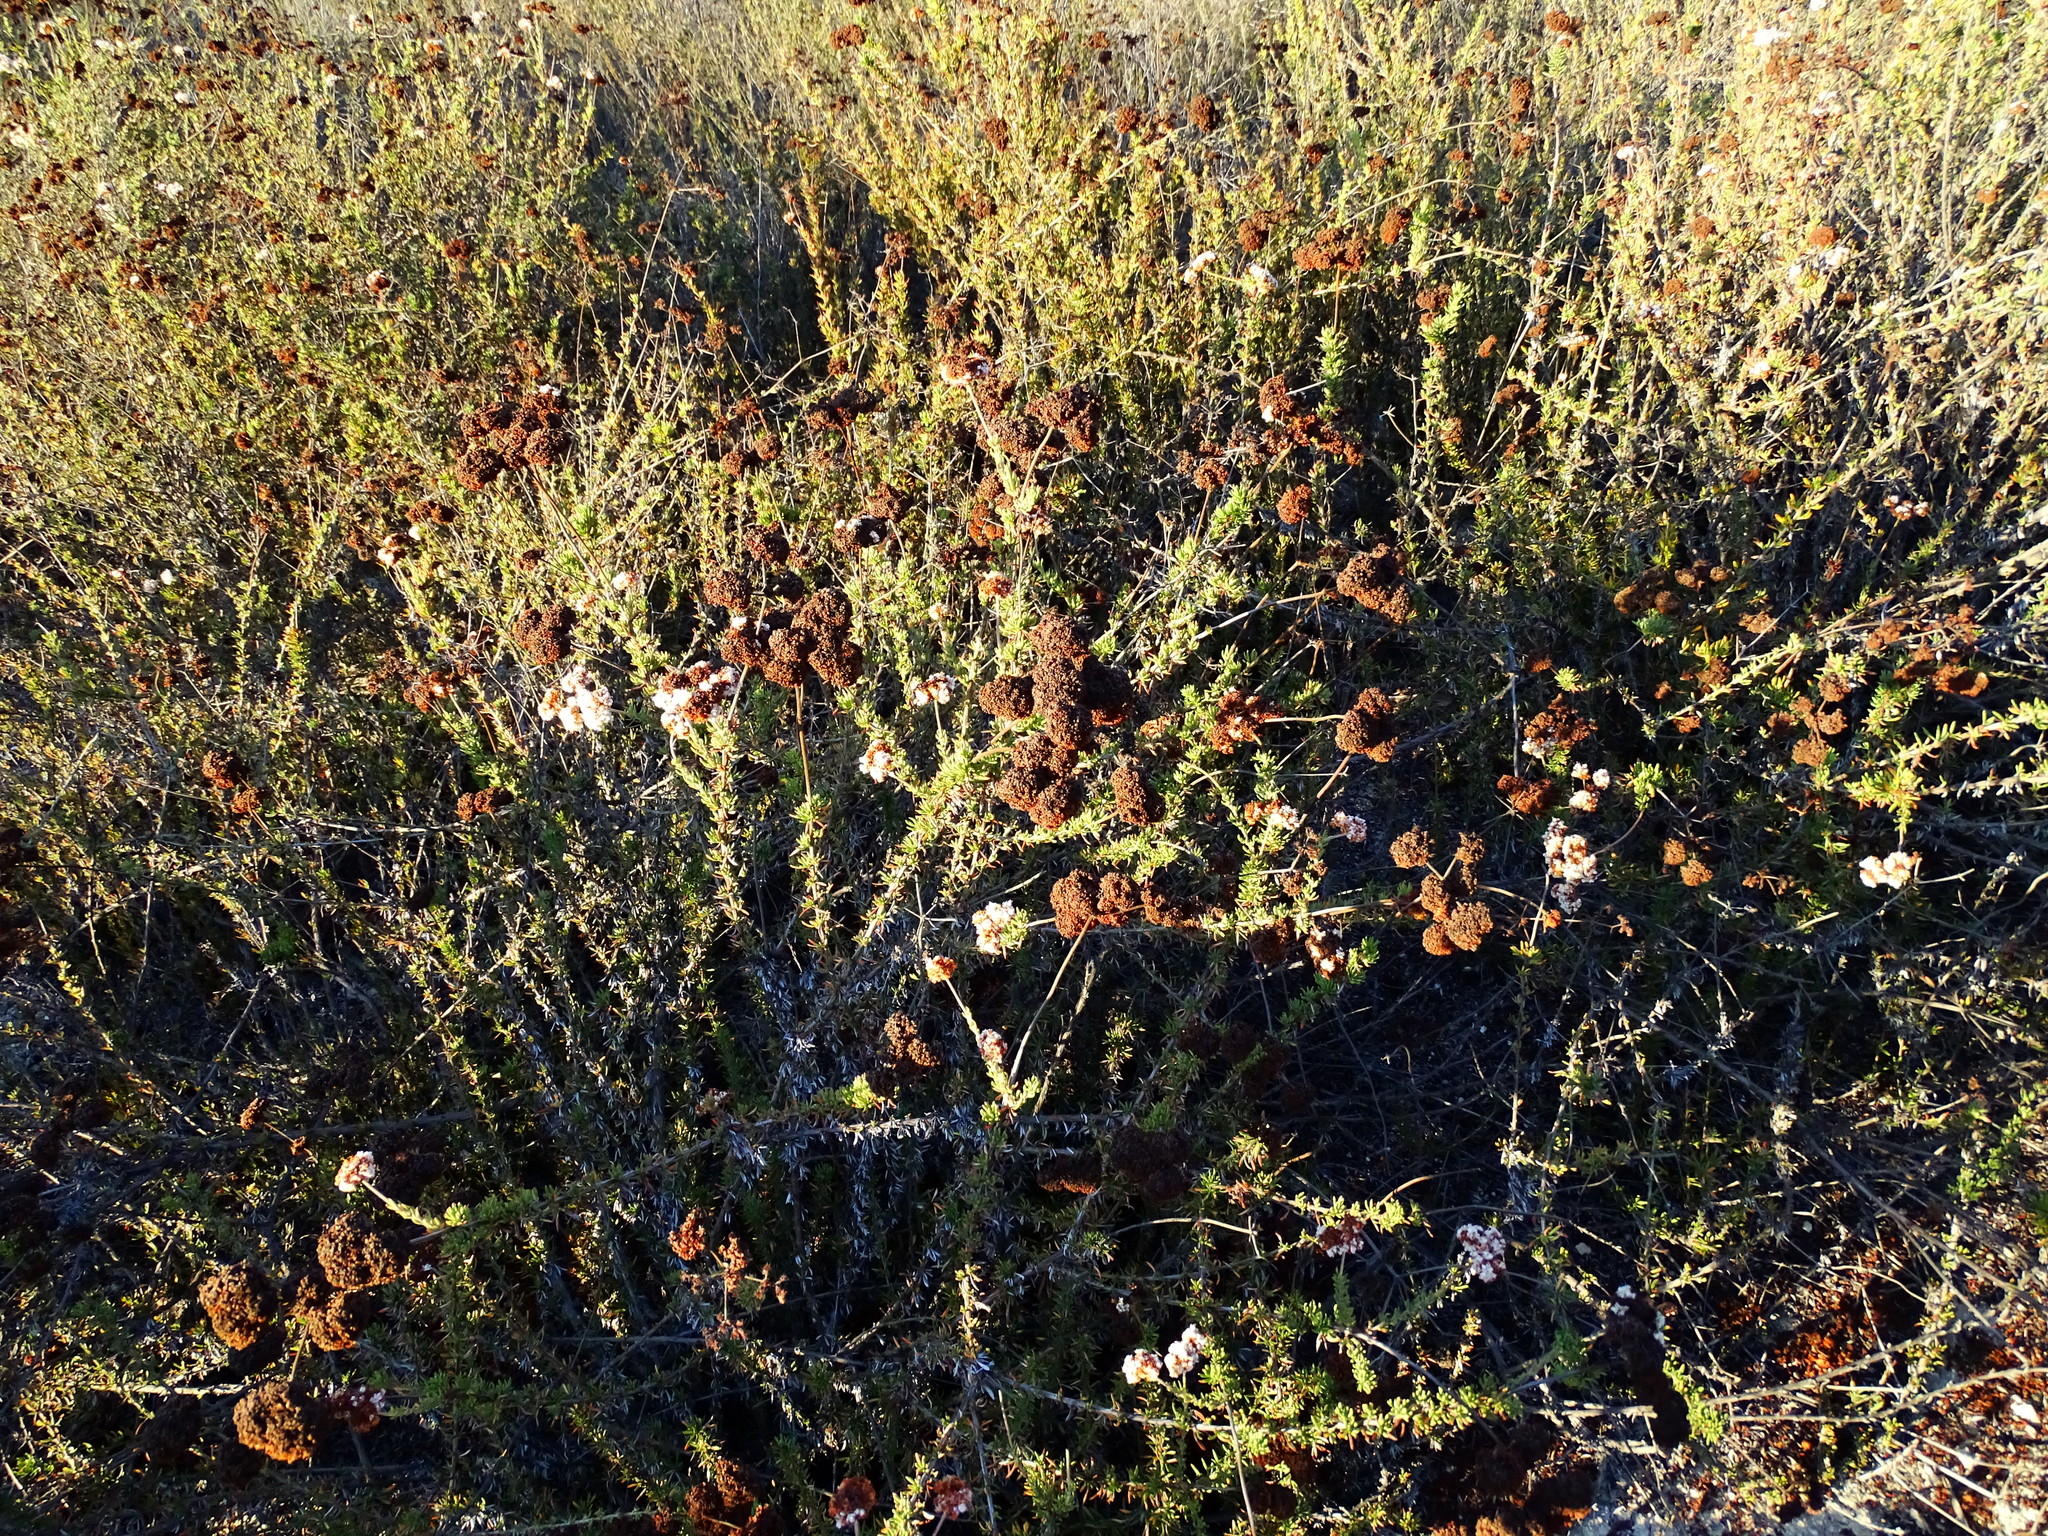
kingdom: Plantae
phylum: Tracheophyta
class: Magnoliopsida
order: Caryophyllales
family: Polygonaceae
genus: Eriogonum
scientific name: Eriogonum fasciculatum
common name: California wild buckwheat
